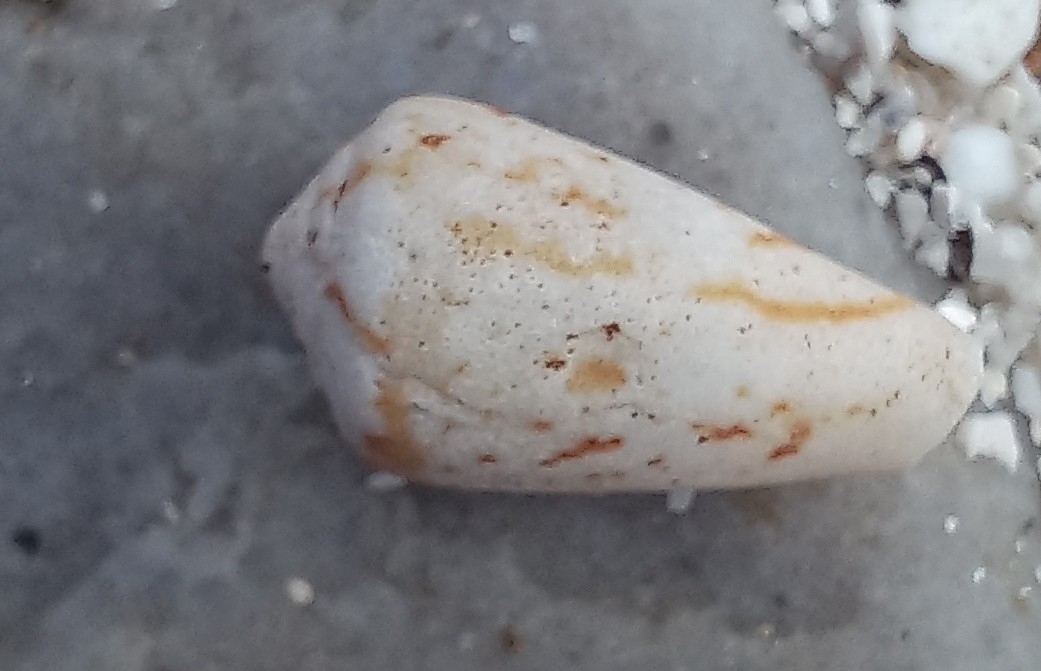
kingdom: Animalia
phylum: Mollusca
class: Gastropoda
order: Neogastropoda
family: Conidae
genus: Conus
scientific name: Conus algoensis
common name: Algoa cone
